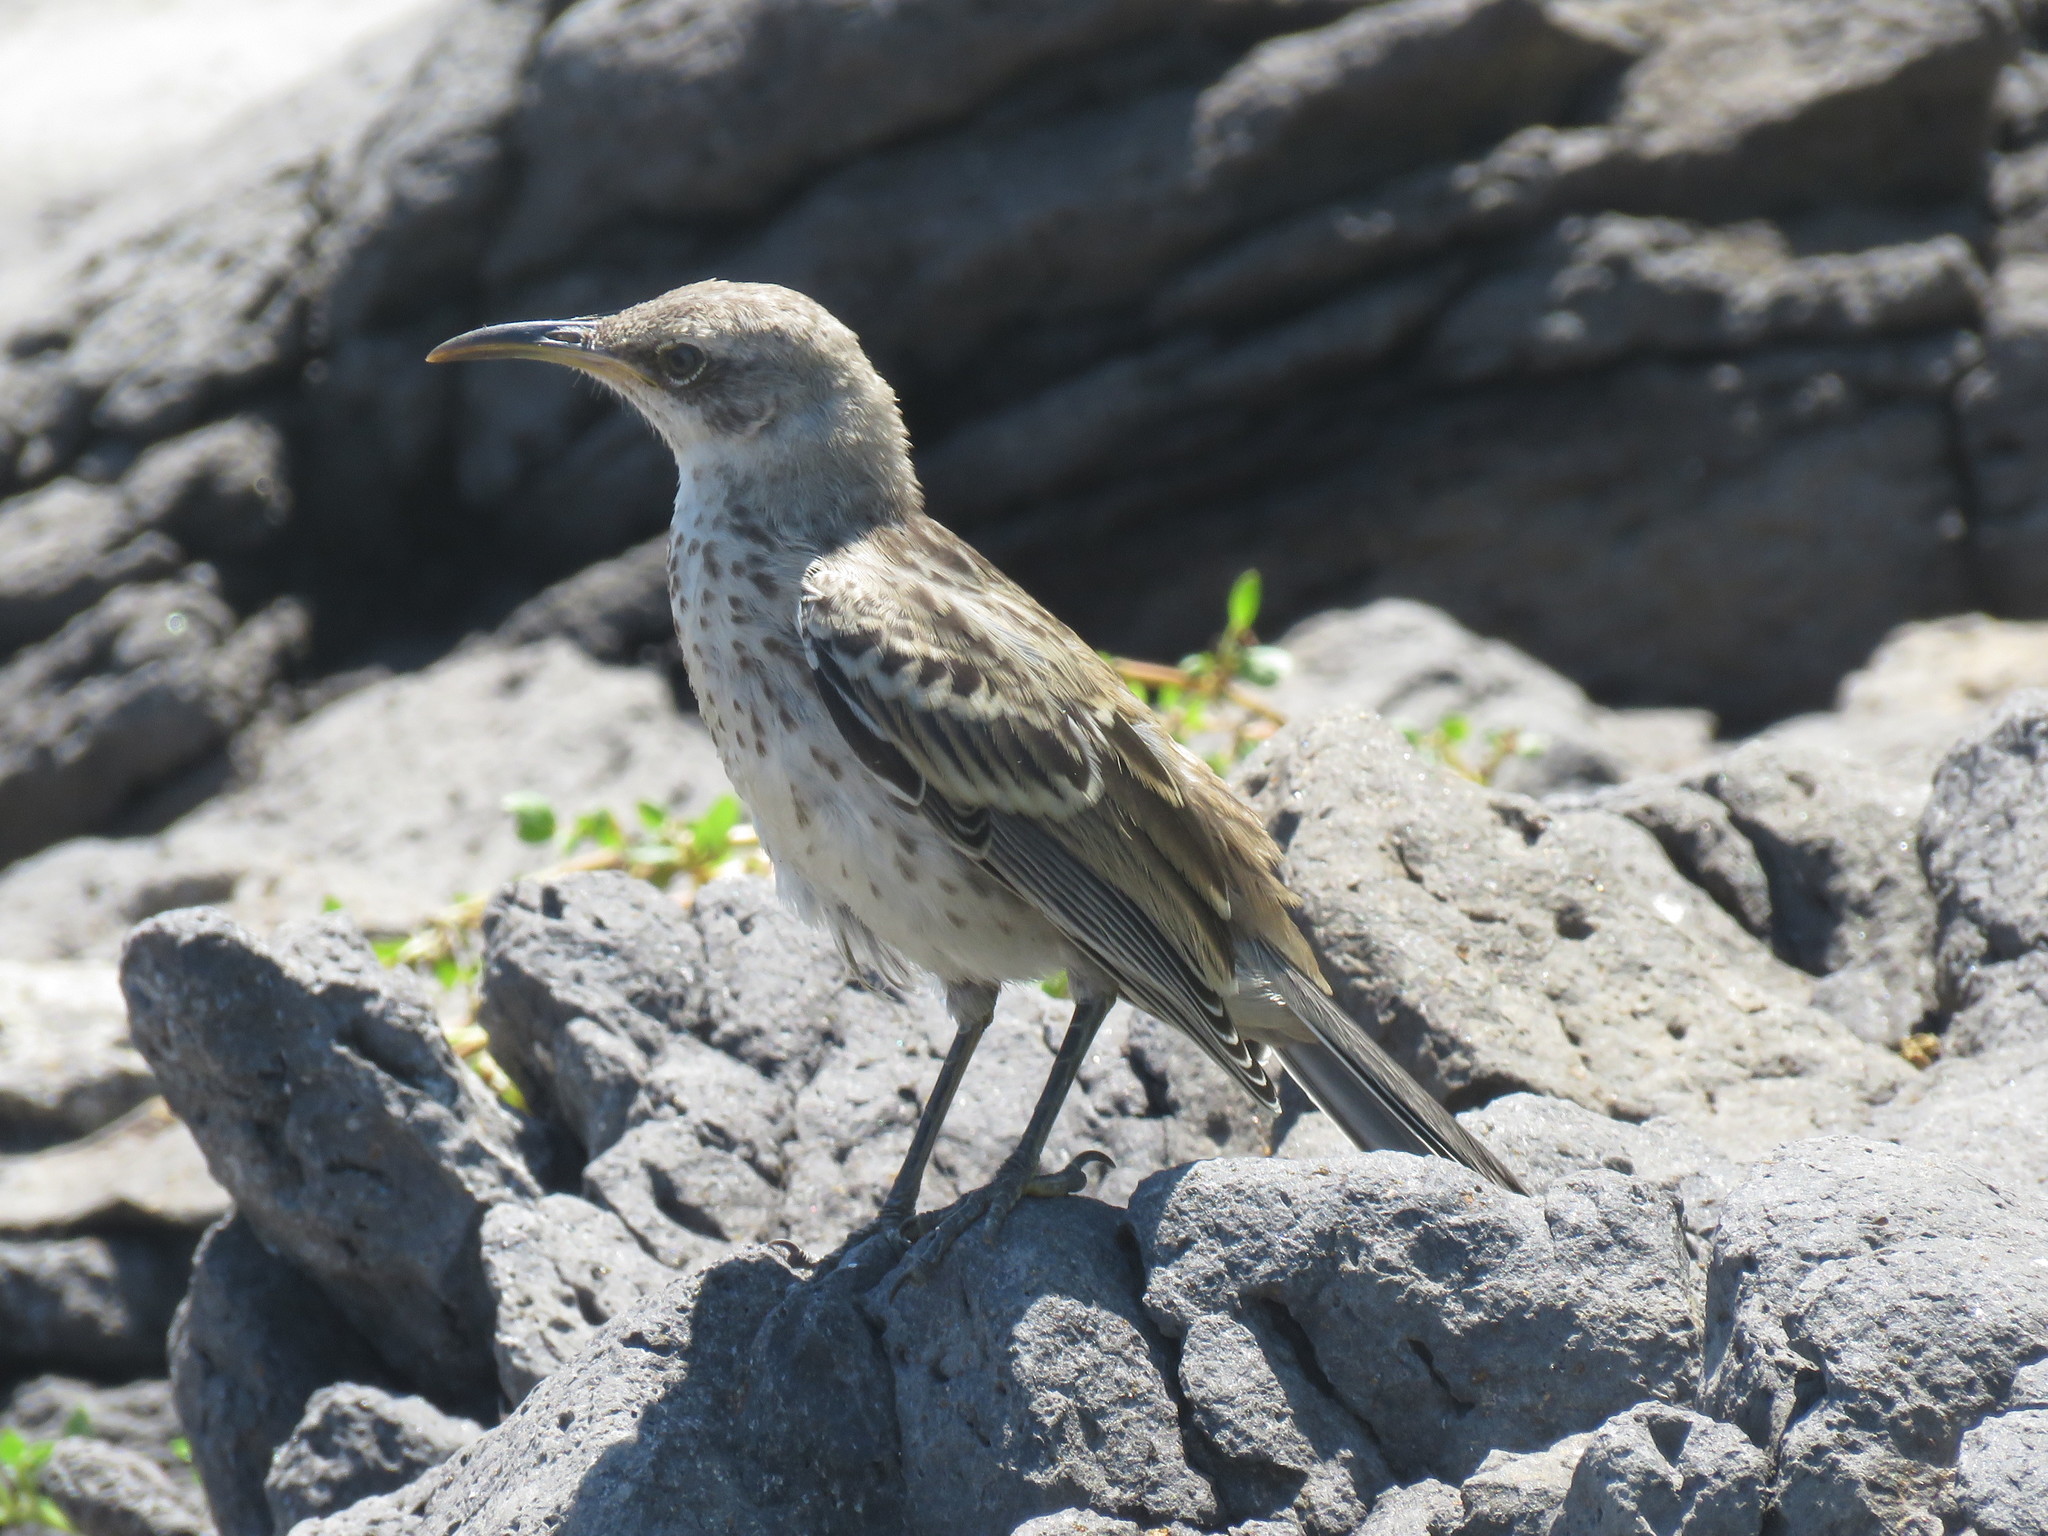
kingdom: Animalia
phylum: Chordata
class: Aves
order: Passeriformes
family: Mimidae
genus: Mimus
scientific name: Mimus macdonaldi
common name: Espanola mockingbird
